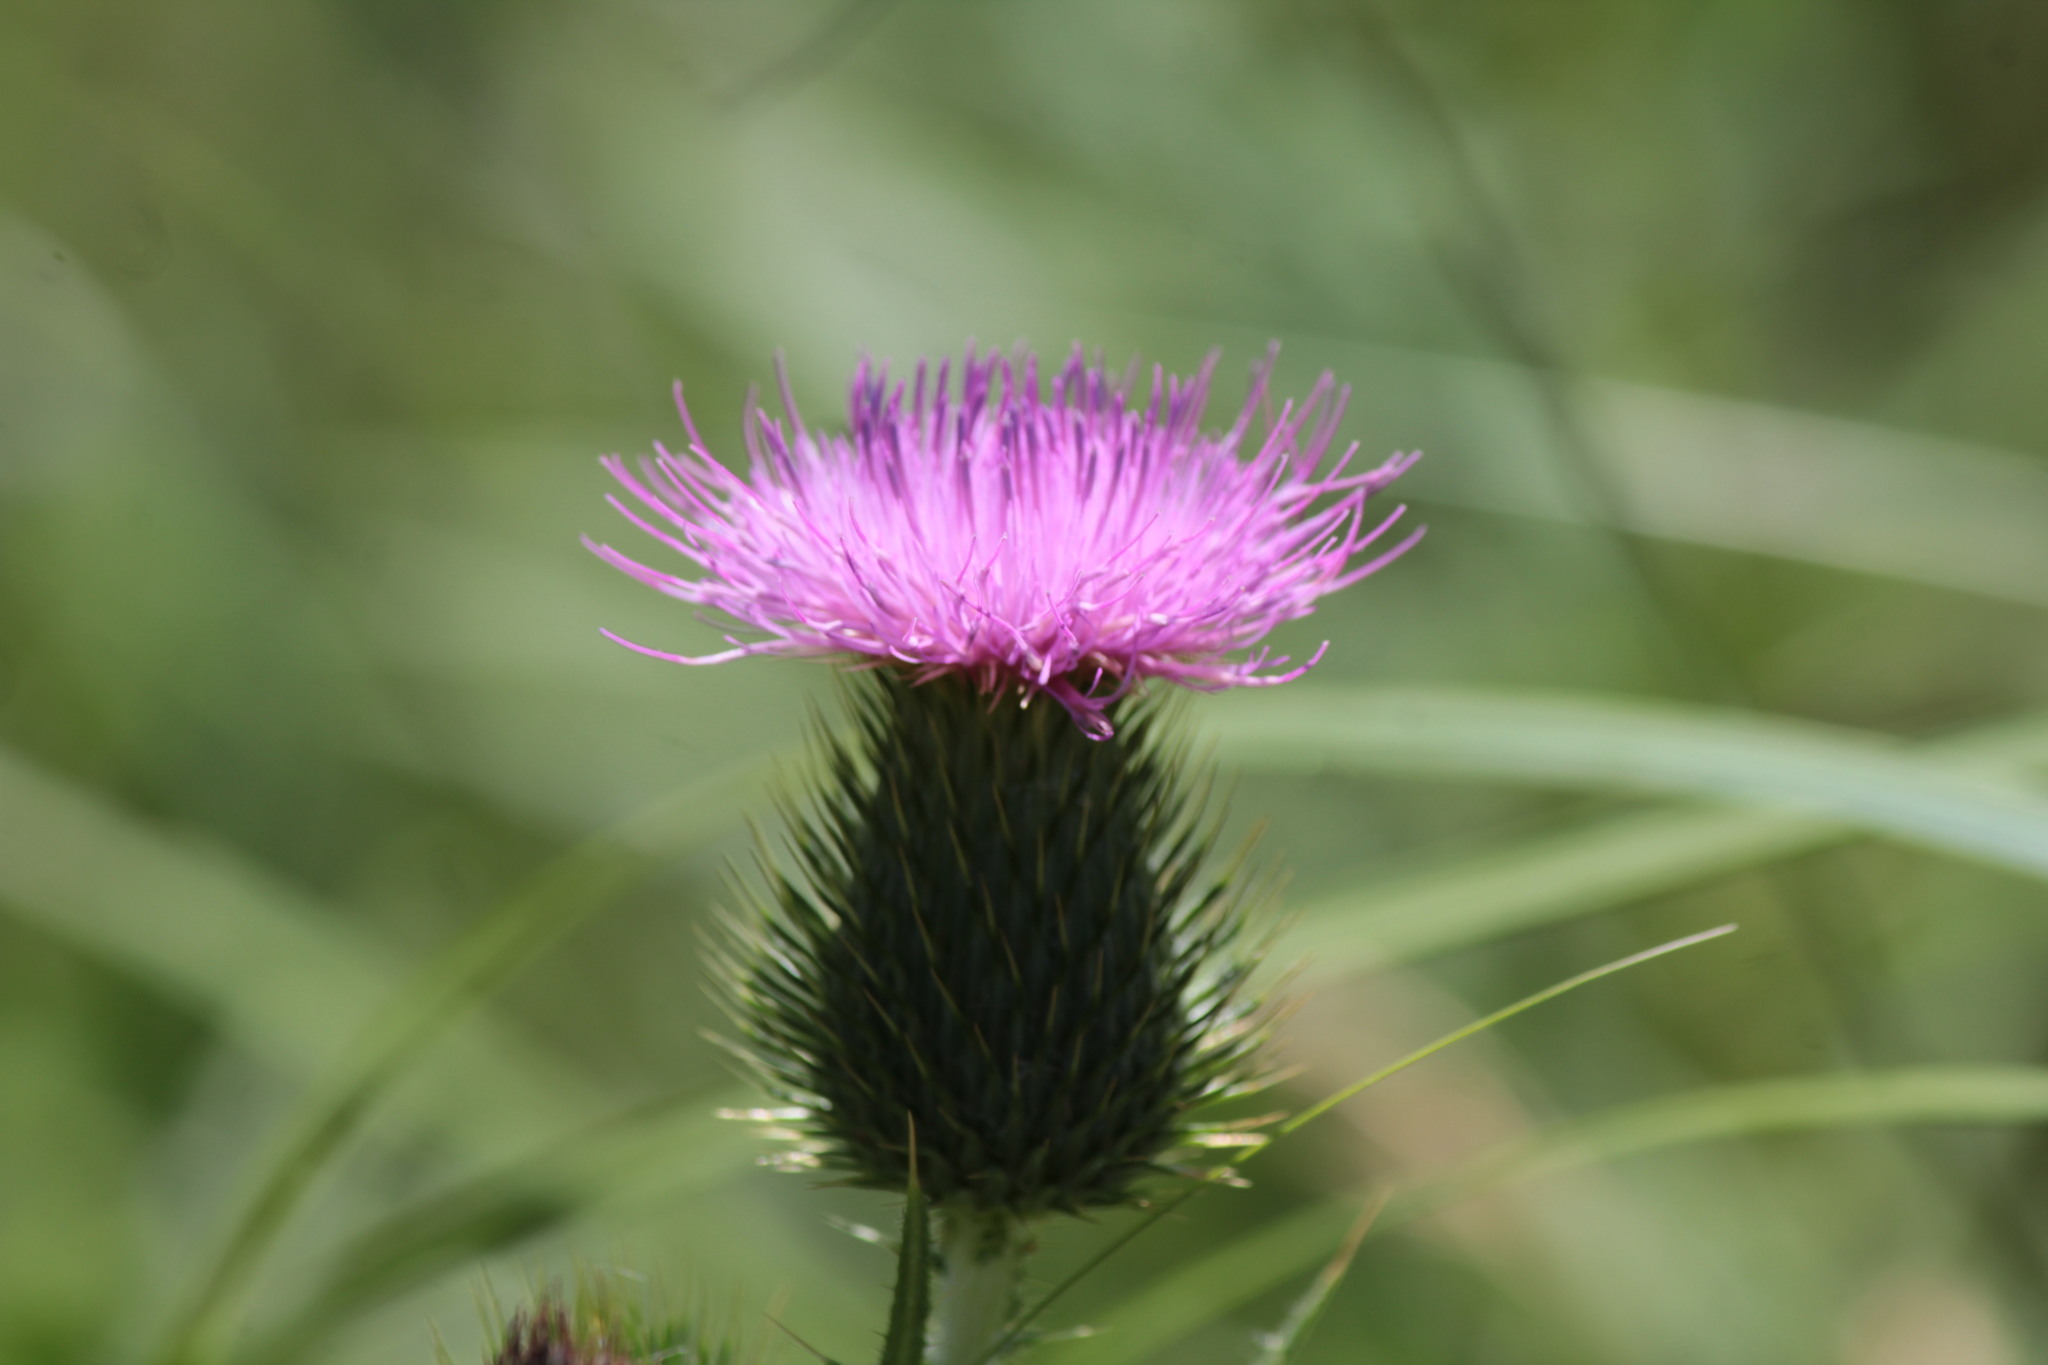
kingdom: Plantae
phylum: Tracheophyta
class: Magnoliopsida
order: Asterales
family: Asteraceae
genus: Cirsium
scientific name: Cirsium vulgare
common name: Bull thistle
